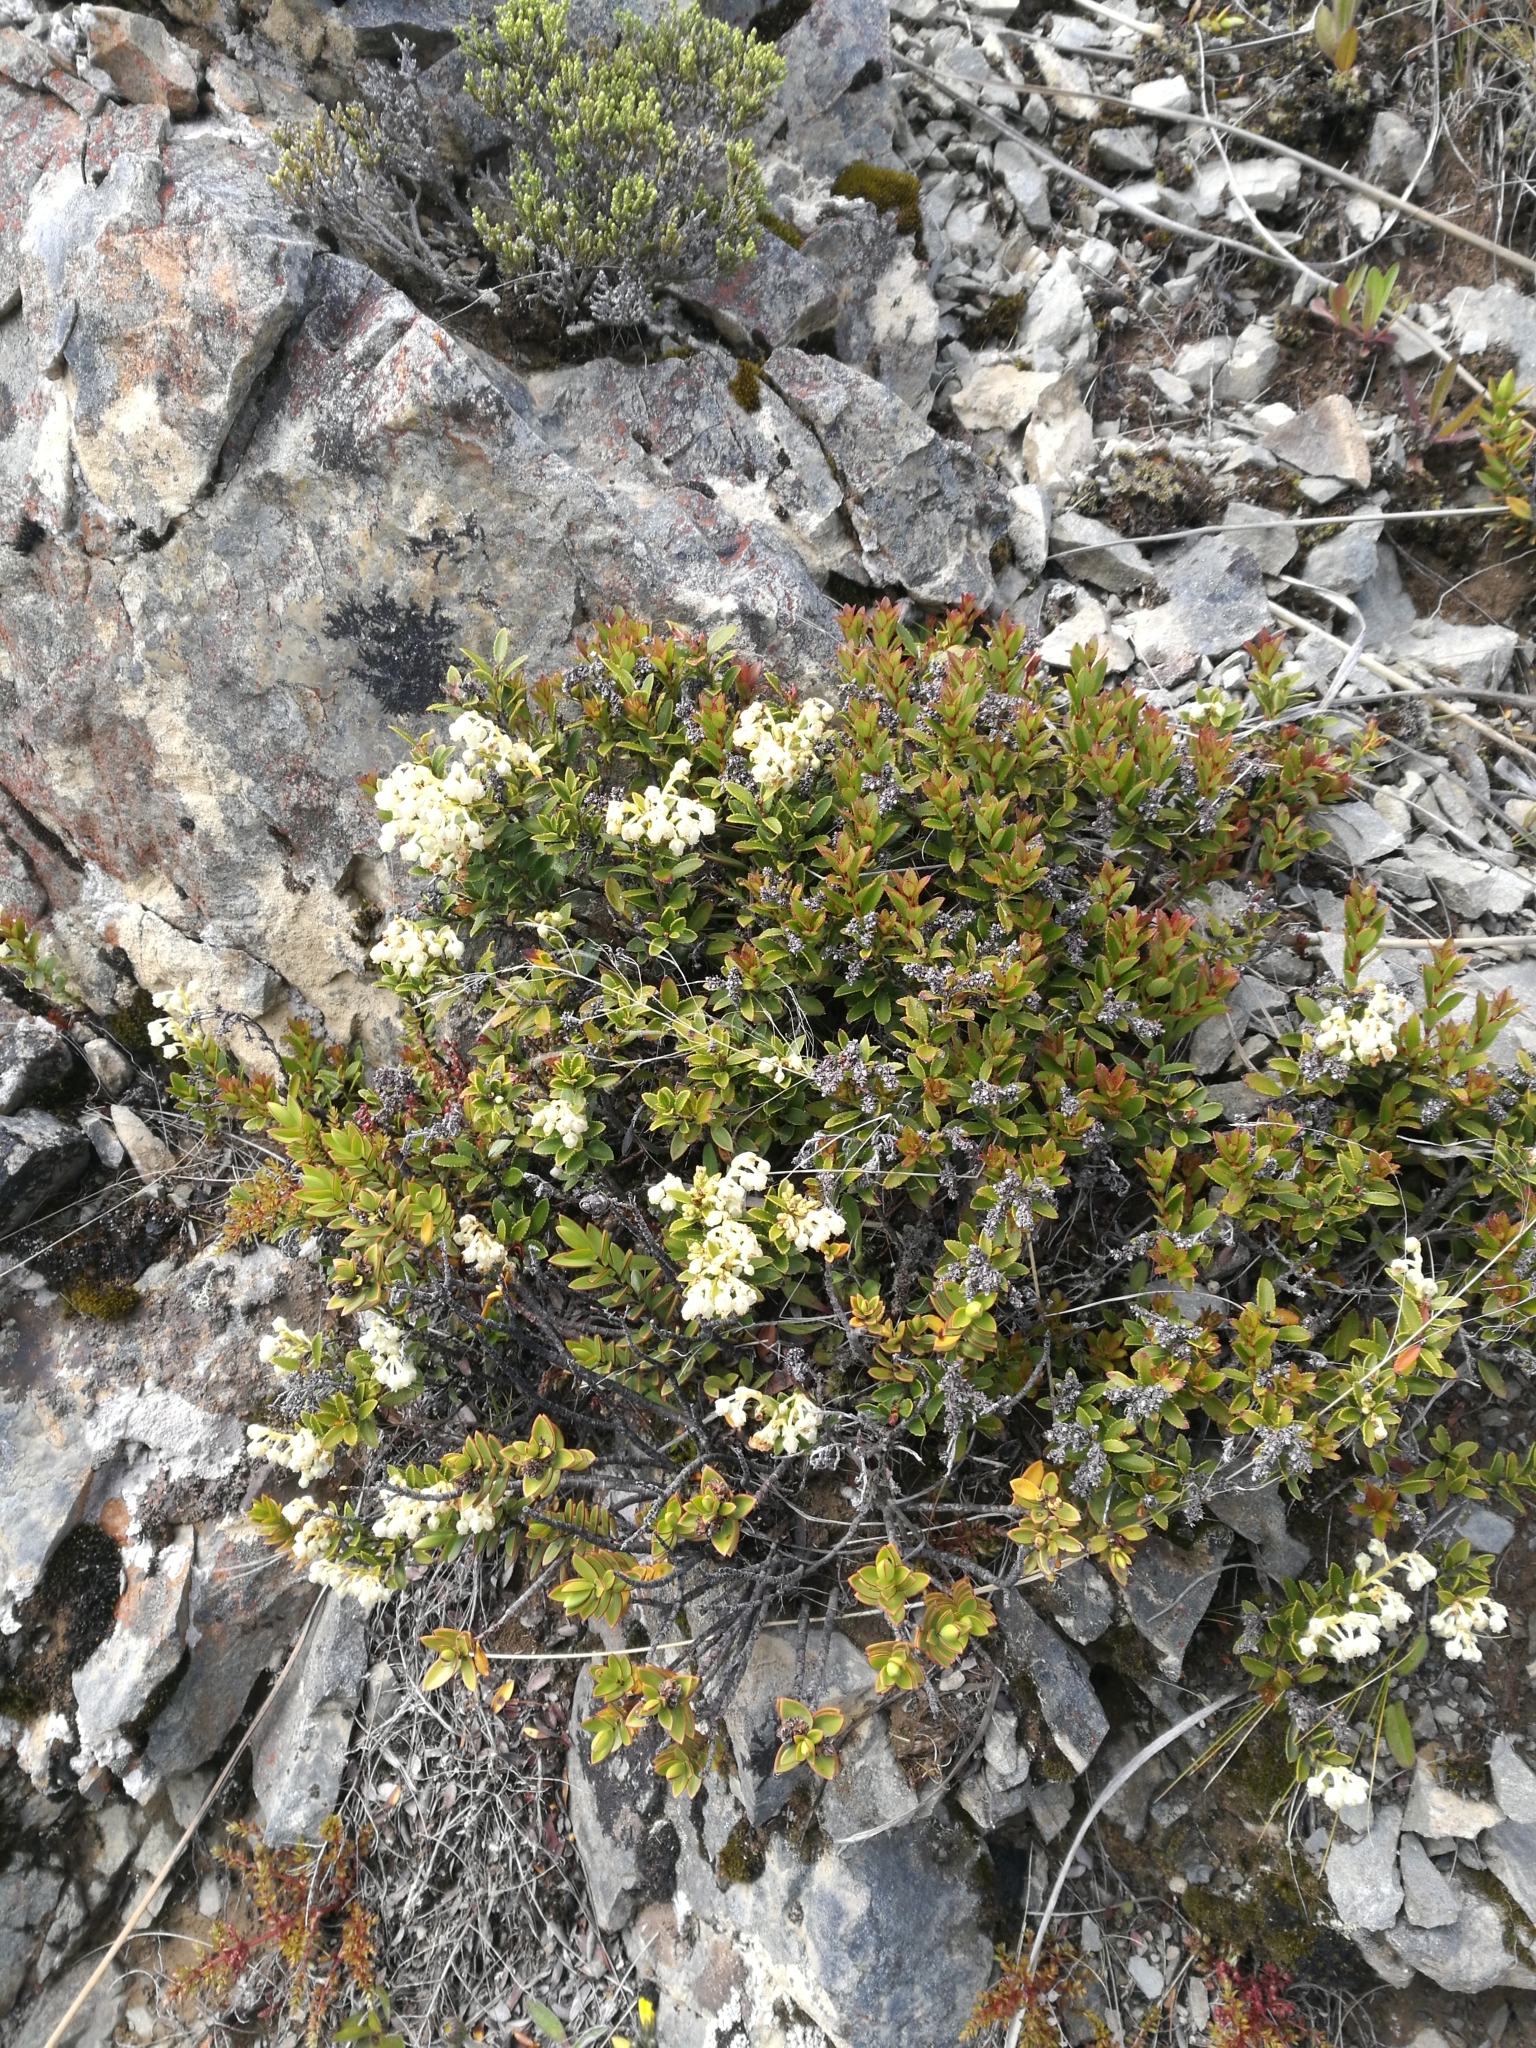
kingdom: Plantae
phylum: Tracheophyta
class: Magnoliopsida
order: Ericales
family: Ericaceae
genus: Gaultheria
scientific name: Gaultheria crassa
